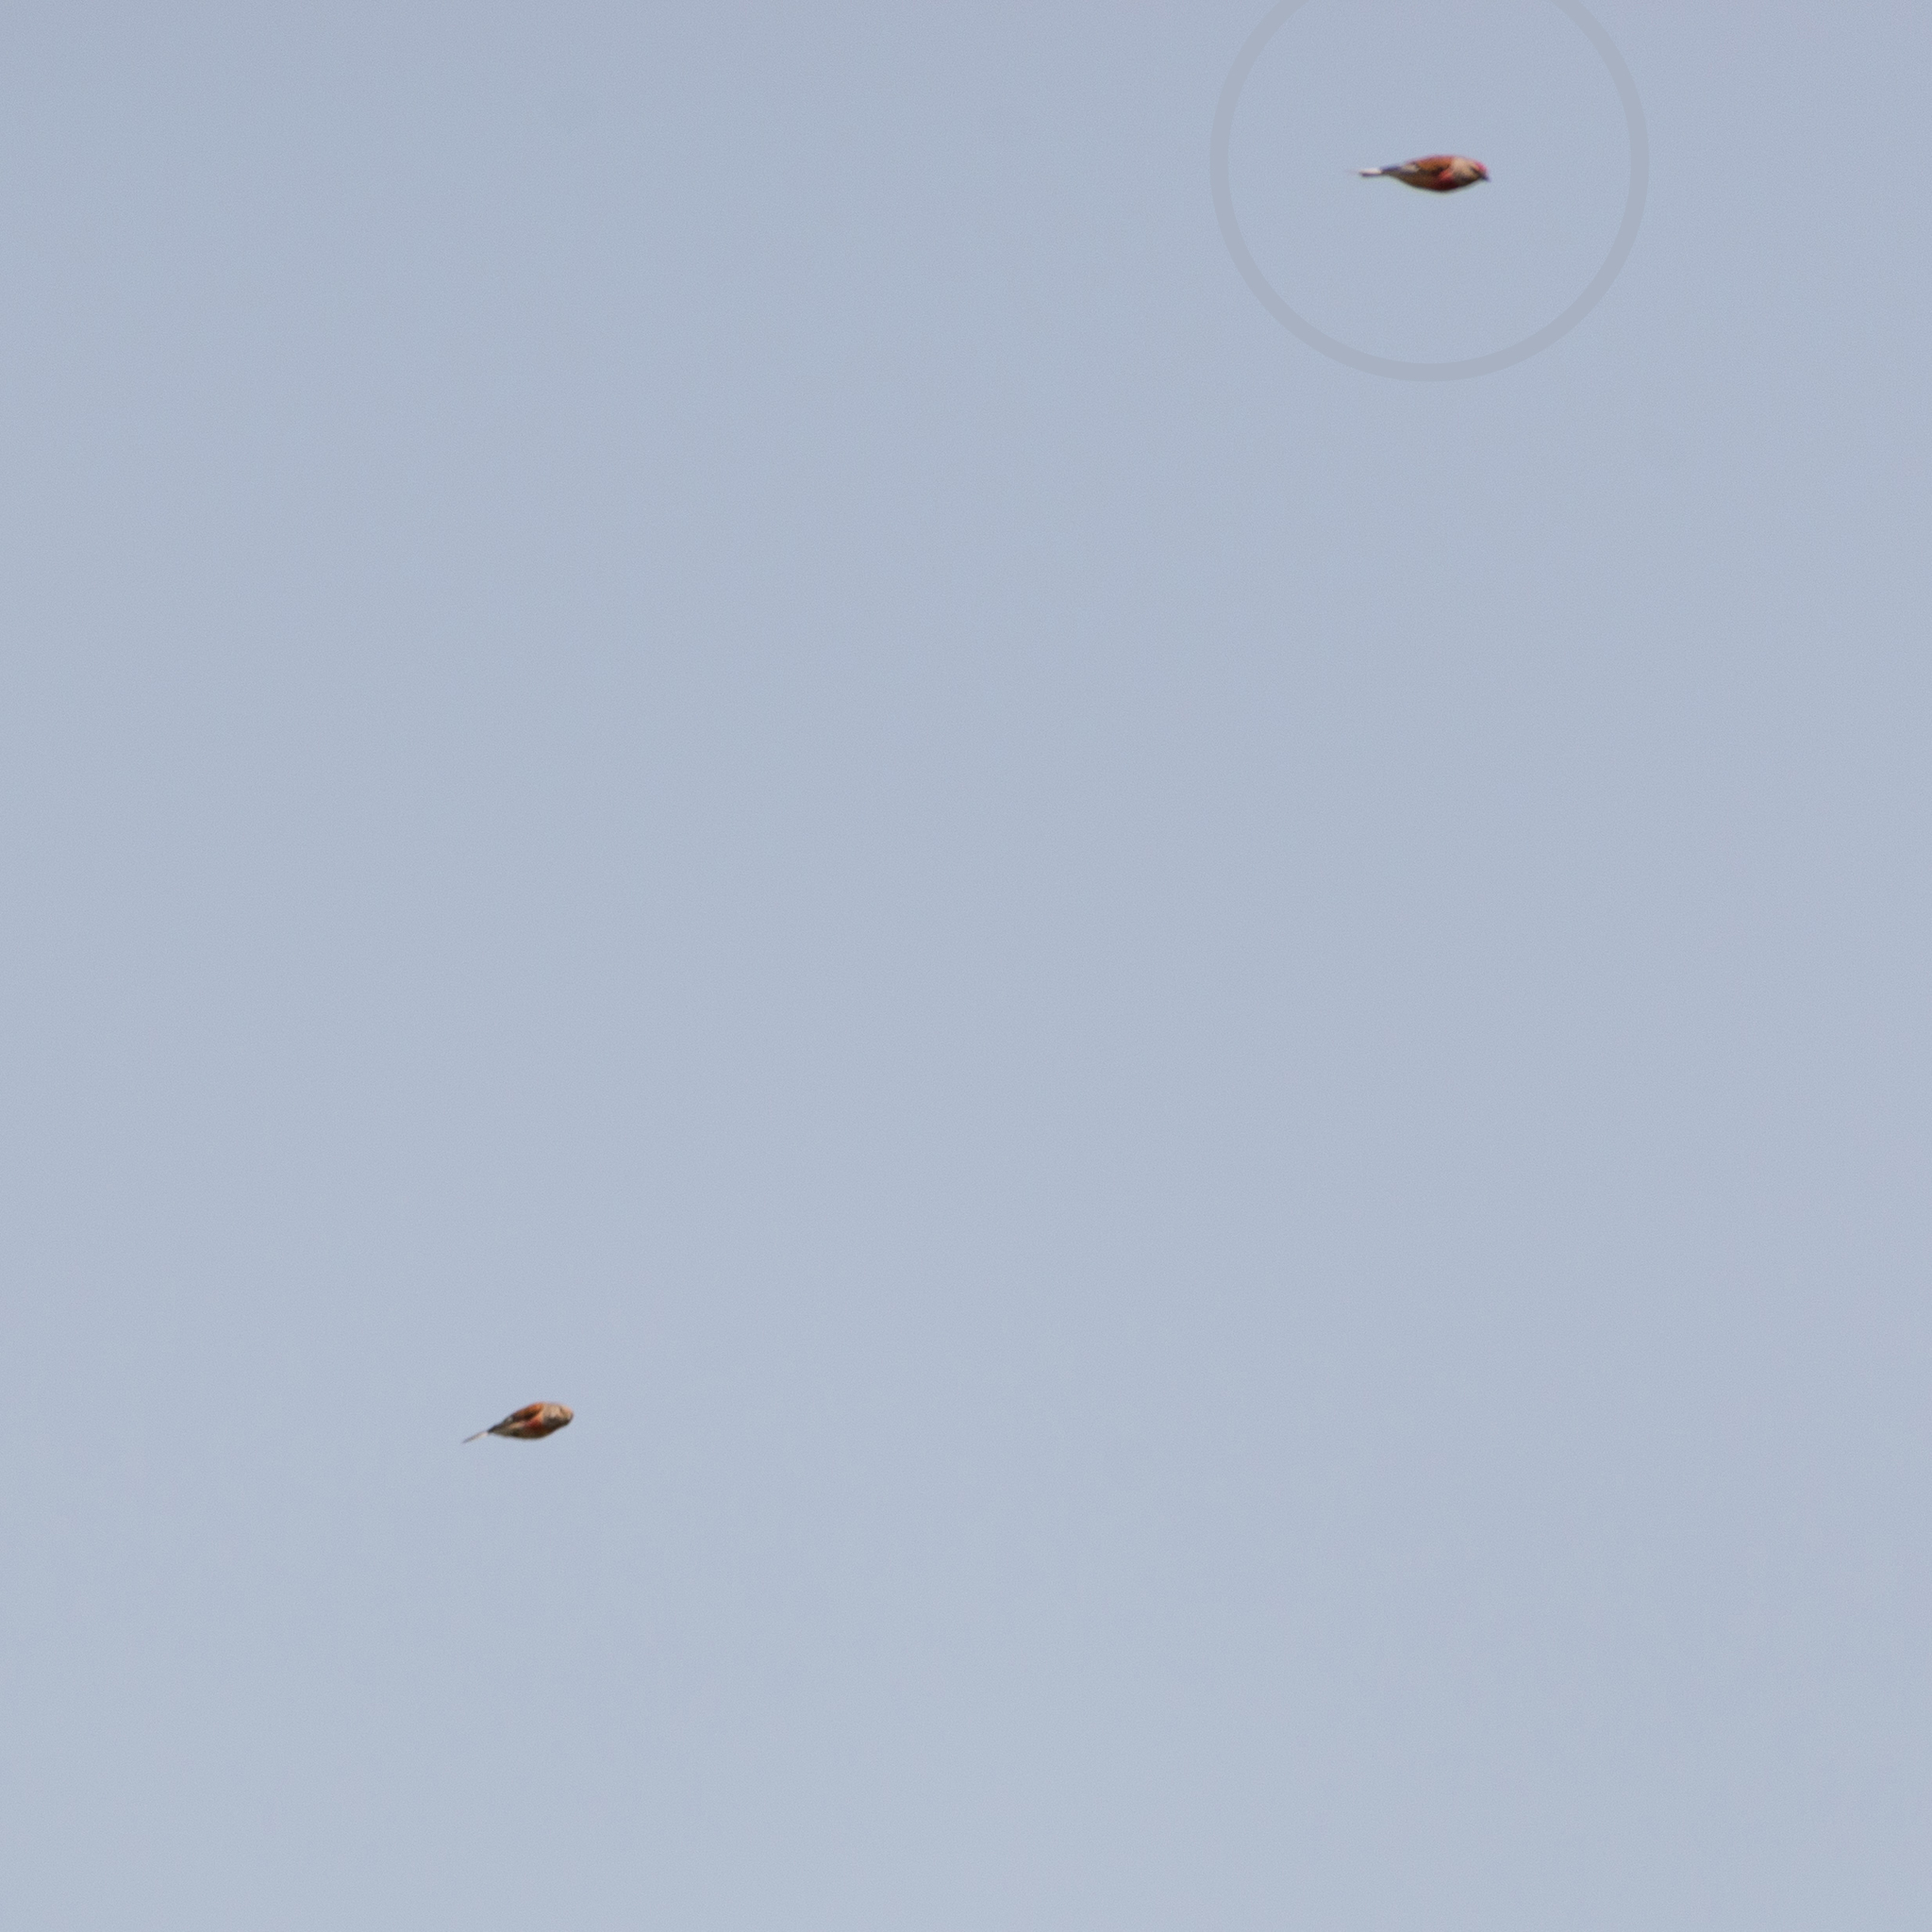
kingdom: Animalia
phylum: Chordata
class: Aves
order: Passeriformes
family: Fringillidae
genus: Linaria
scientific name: Linaria cannabina
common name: Common linnet
